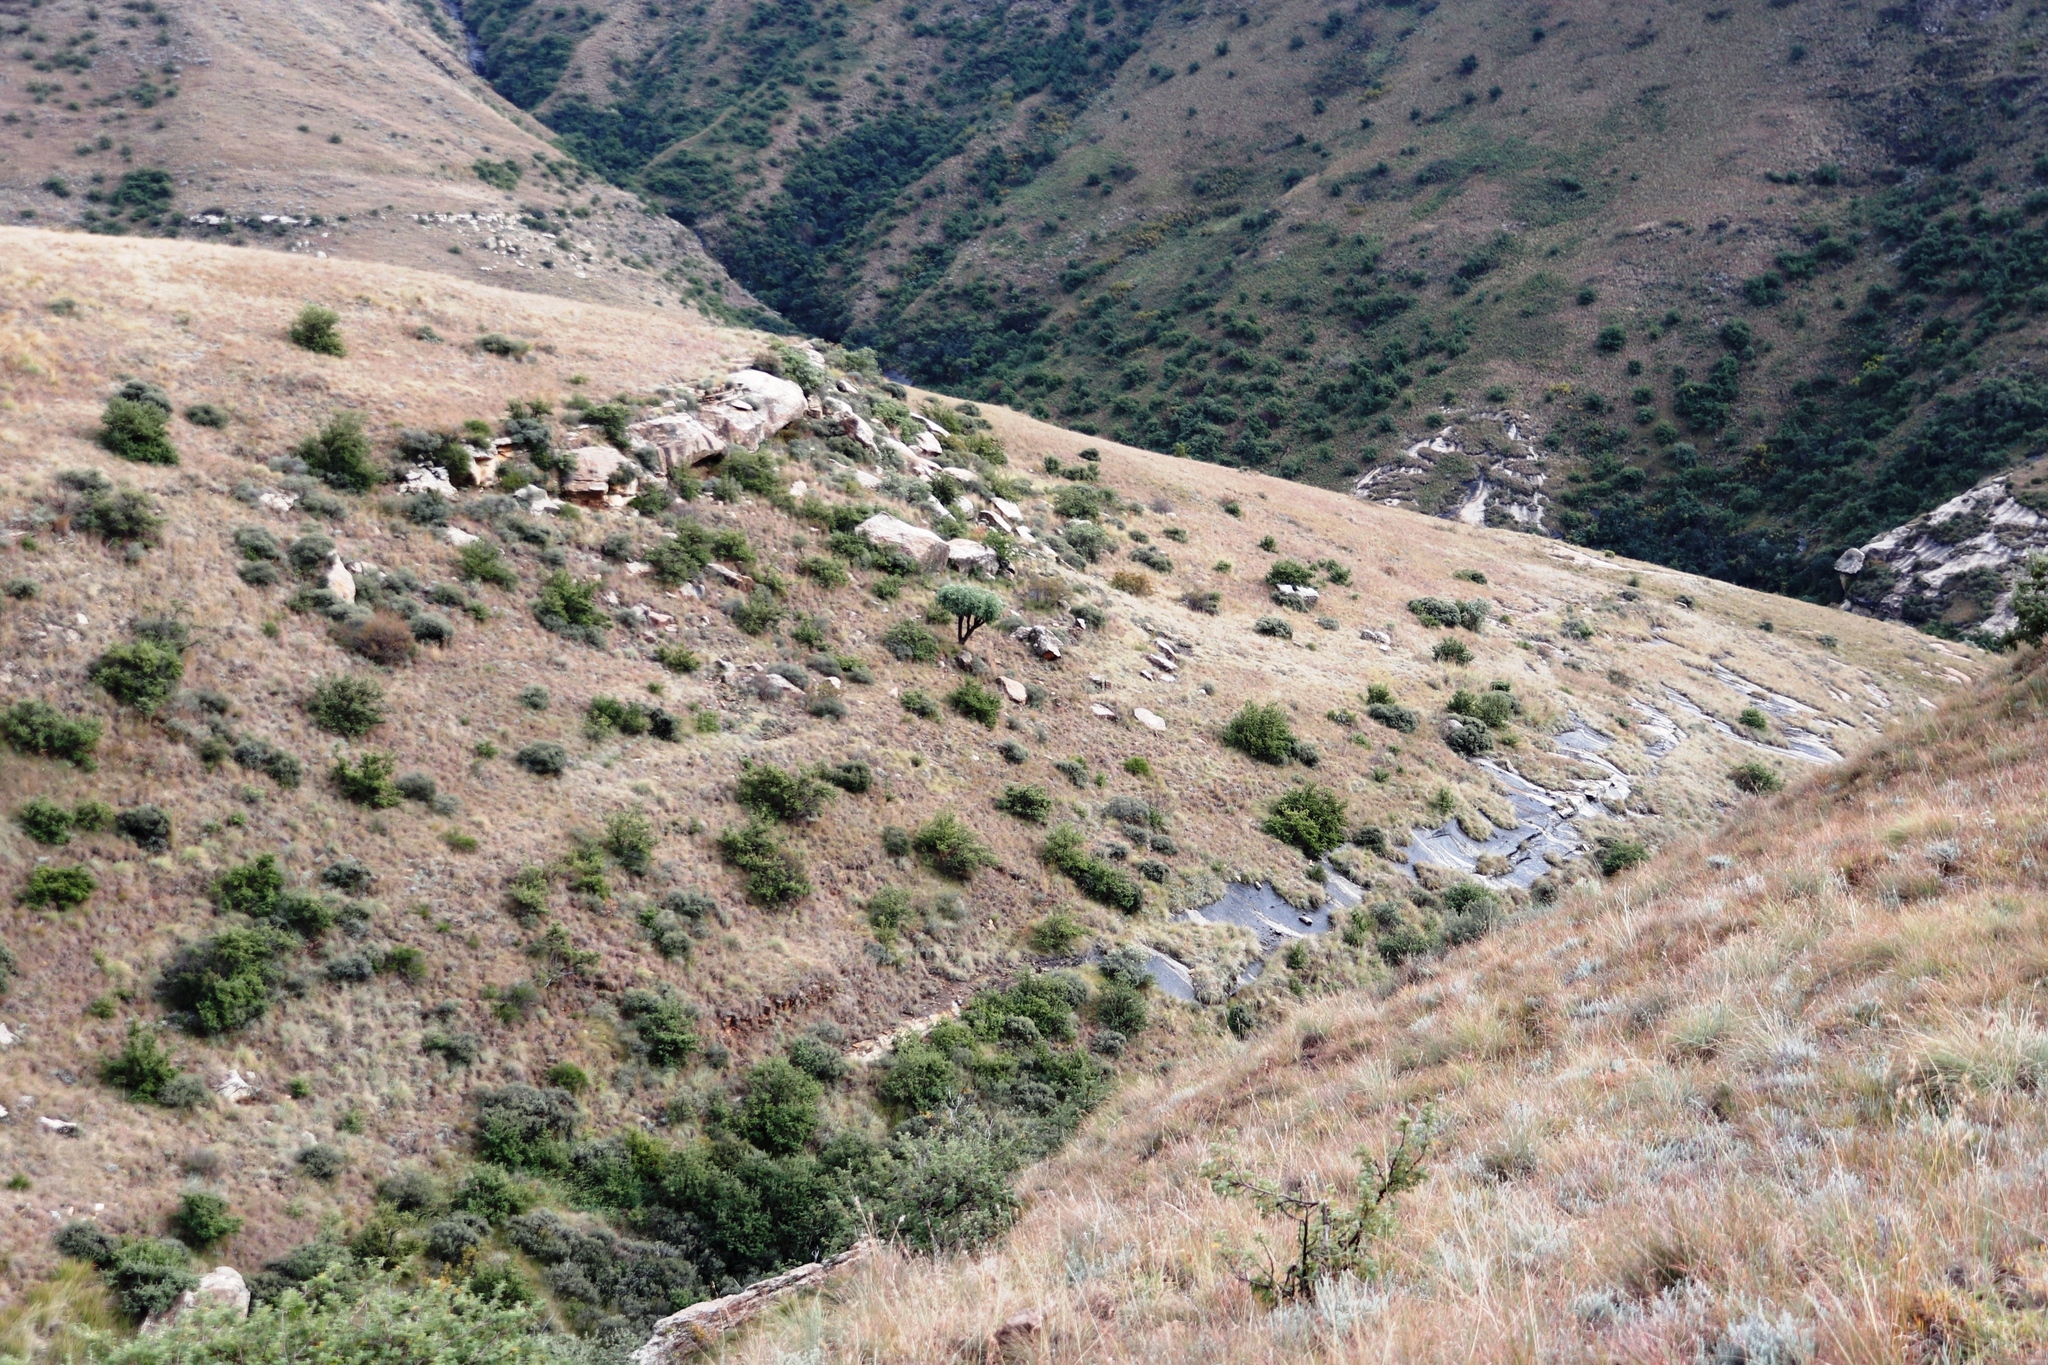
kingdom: Plantae
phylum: Tracheophyta
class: Magnoliopsida
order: Apiales
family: Araliaceae
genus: Cussonia
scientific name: Cussonia paniculata
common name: Cabbagetree
